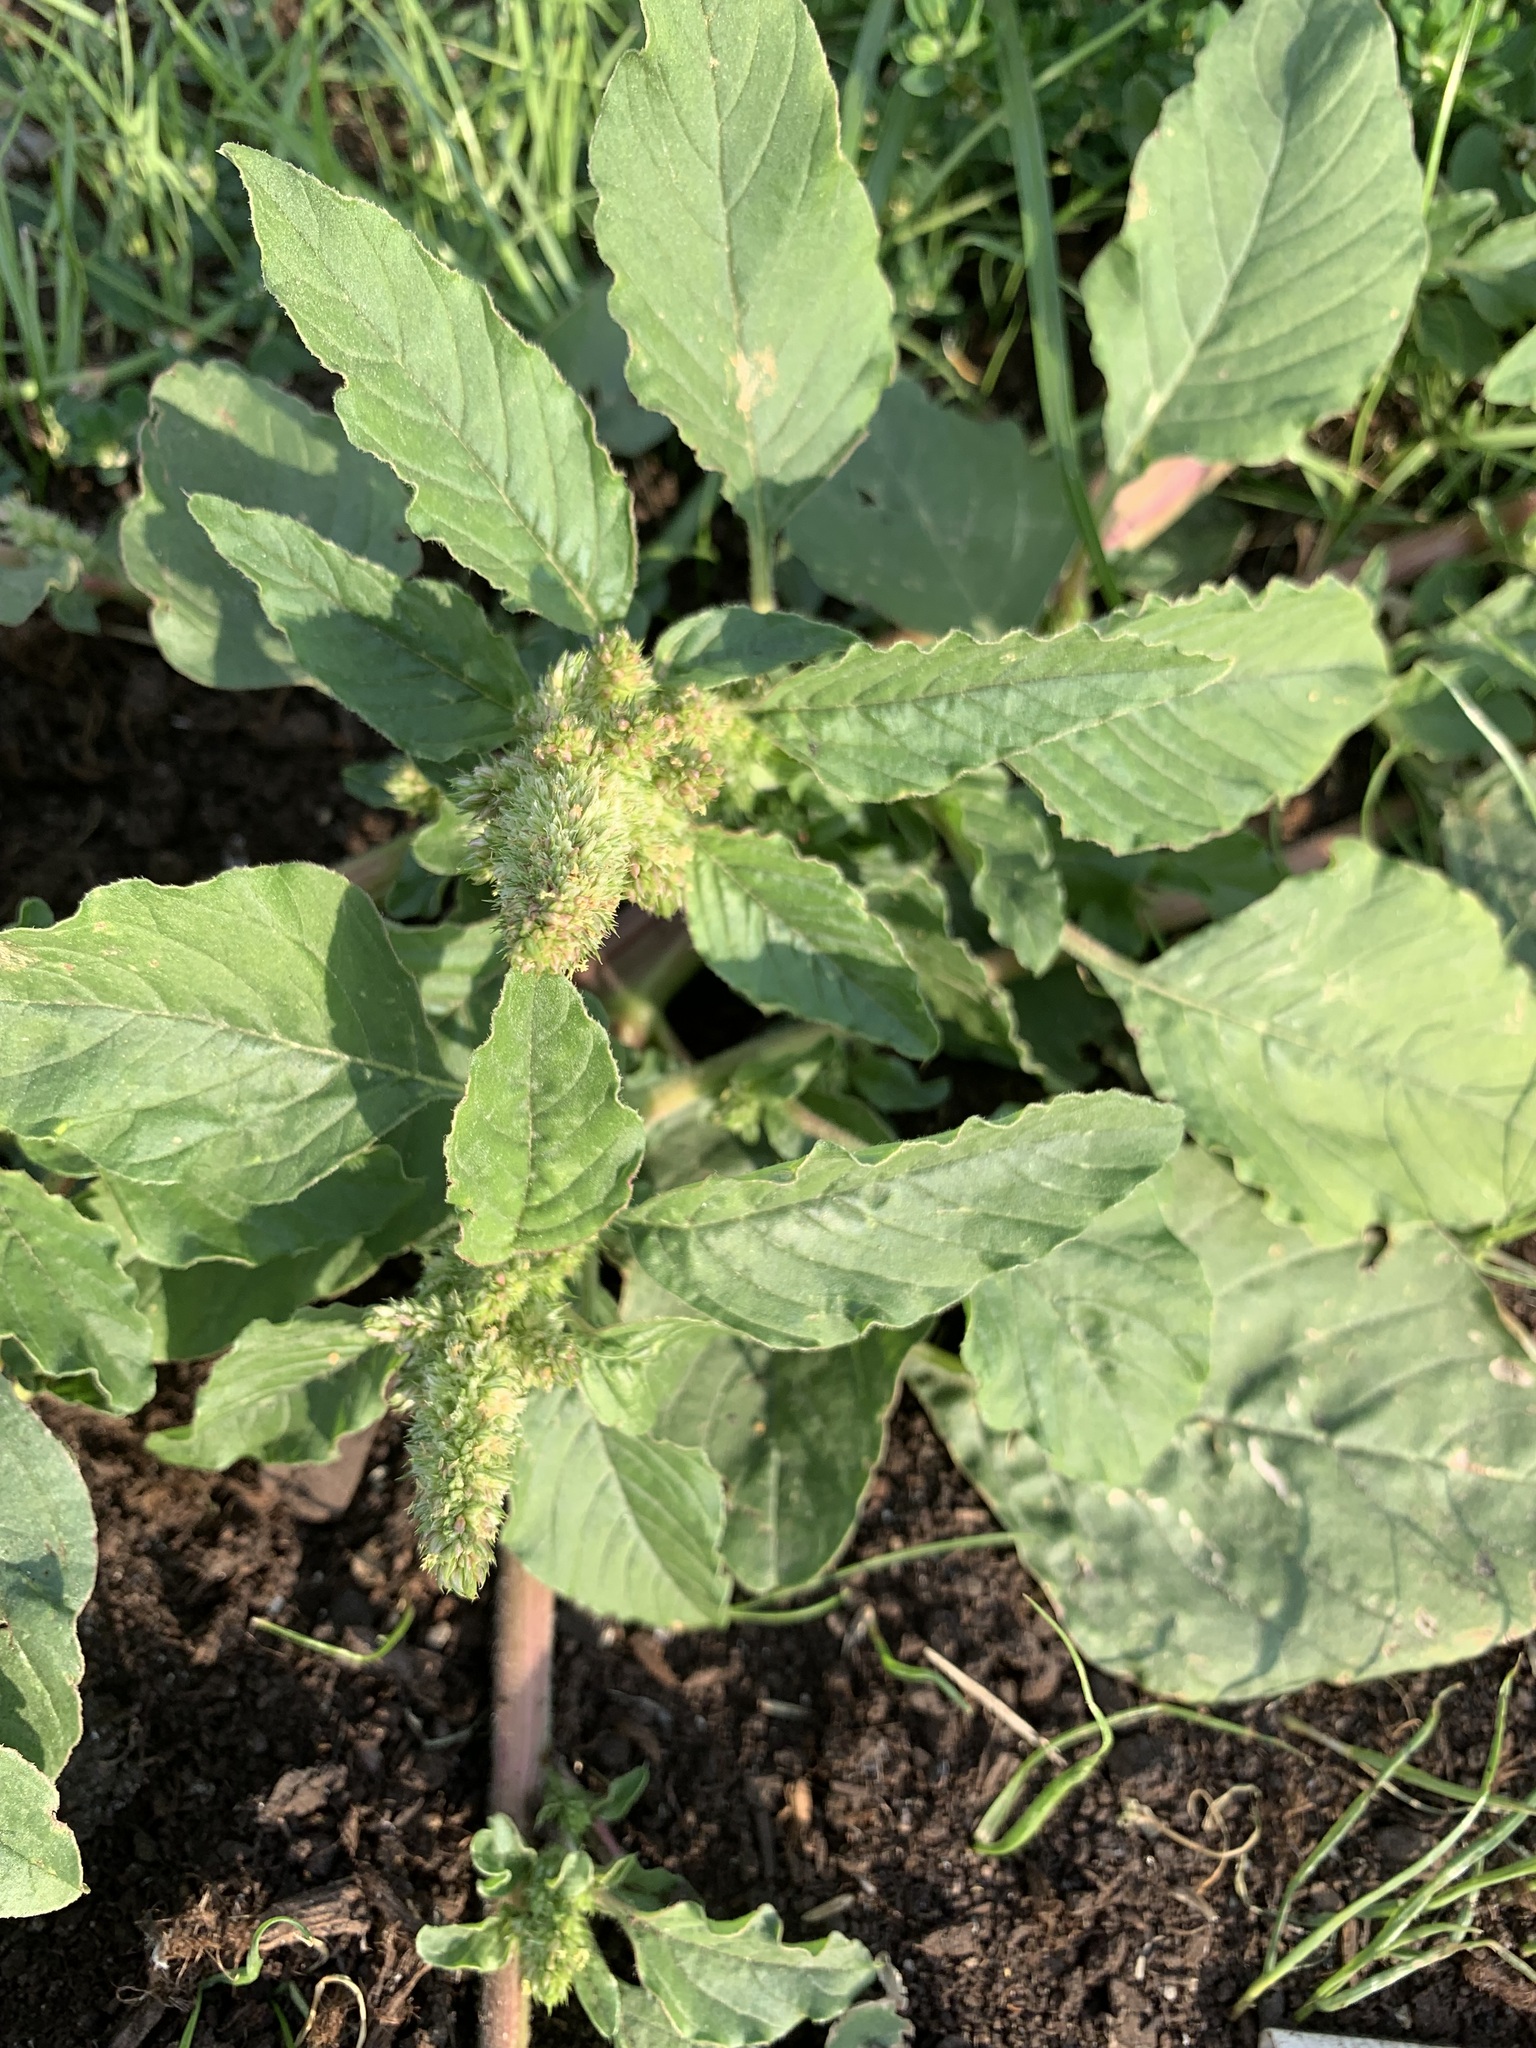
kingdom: Plantae
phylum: Tracheophyta
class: Magnoliopsida
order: Caryophyllales
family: Amaranthaceae
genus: Amaranthus
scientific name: Amaranthus retroflexus
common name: Redroot amaranth
